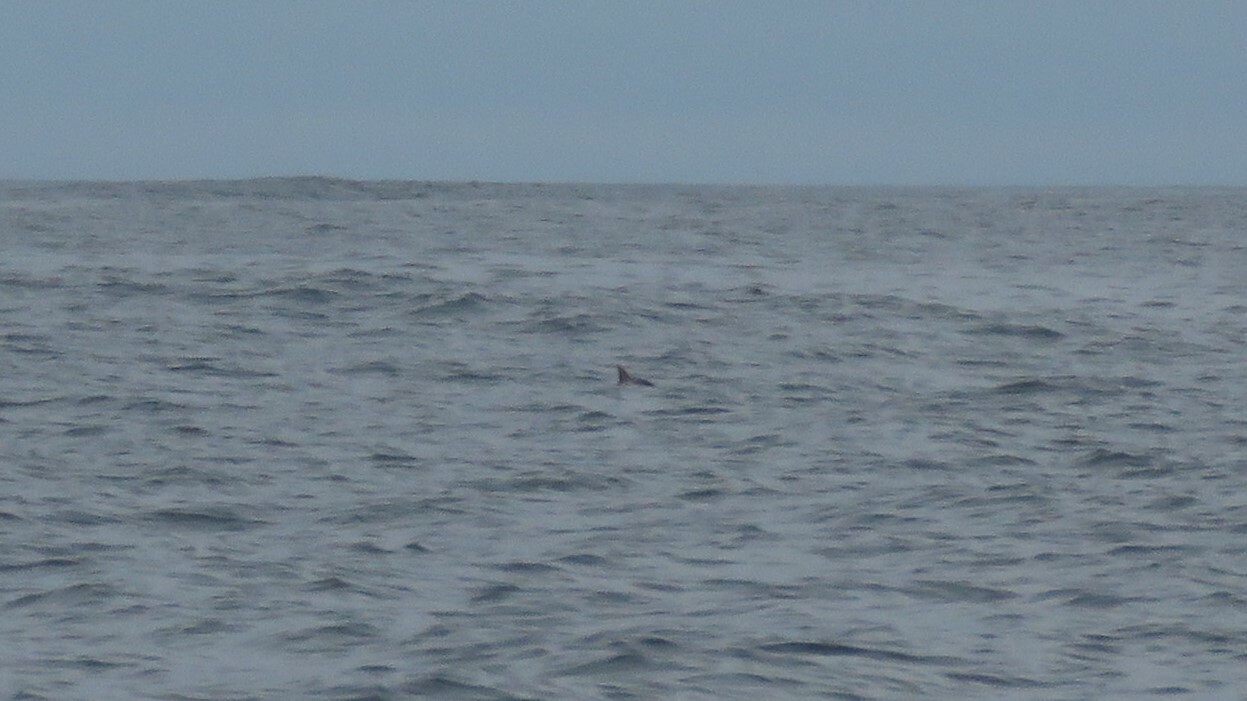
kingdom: Animalia
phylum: Chordata
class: Mammalia
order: Cetacea
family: Phocoenidae
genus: Phocoena
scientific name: Phocoena phocoena
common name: Harbor porpoise
